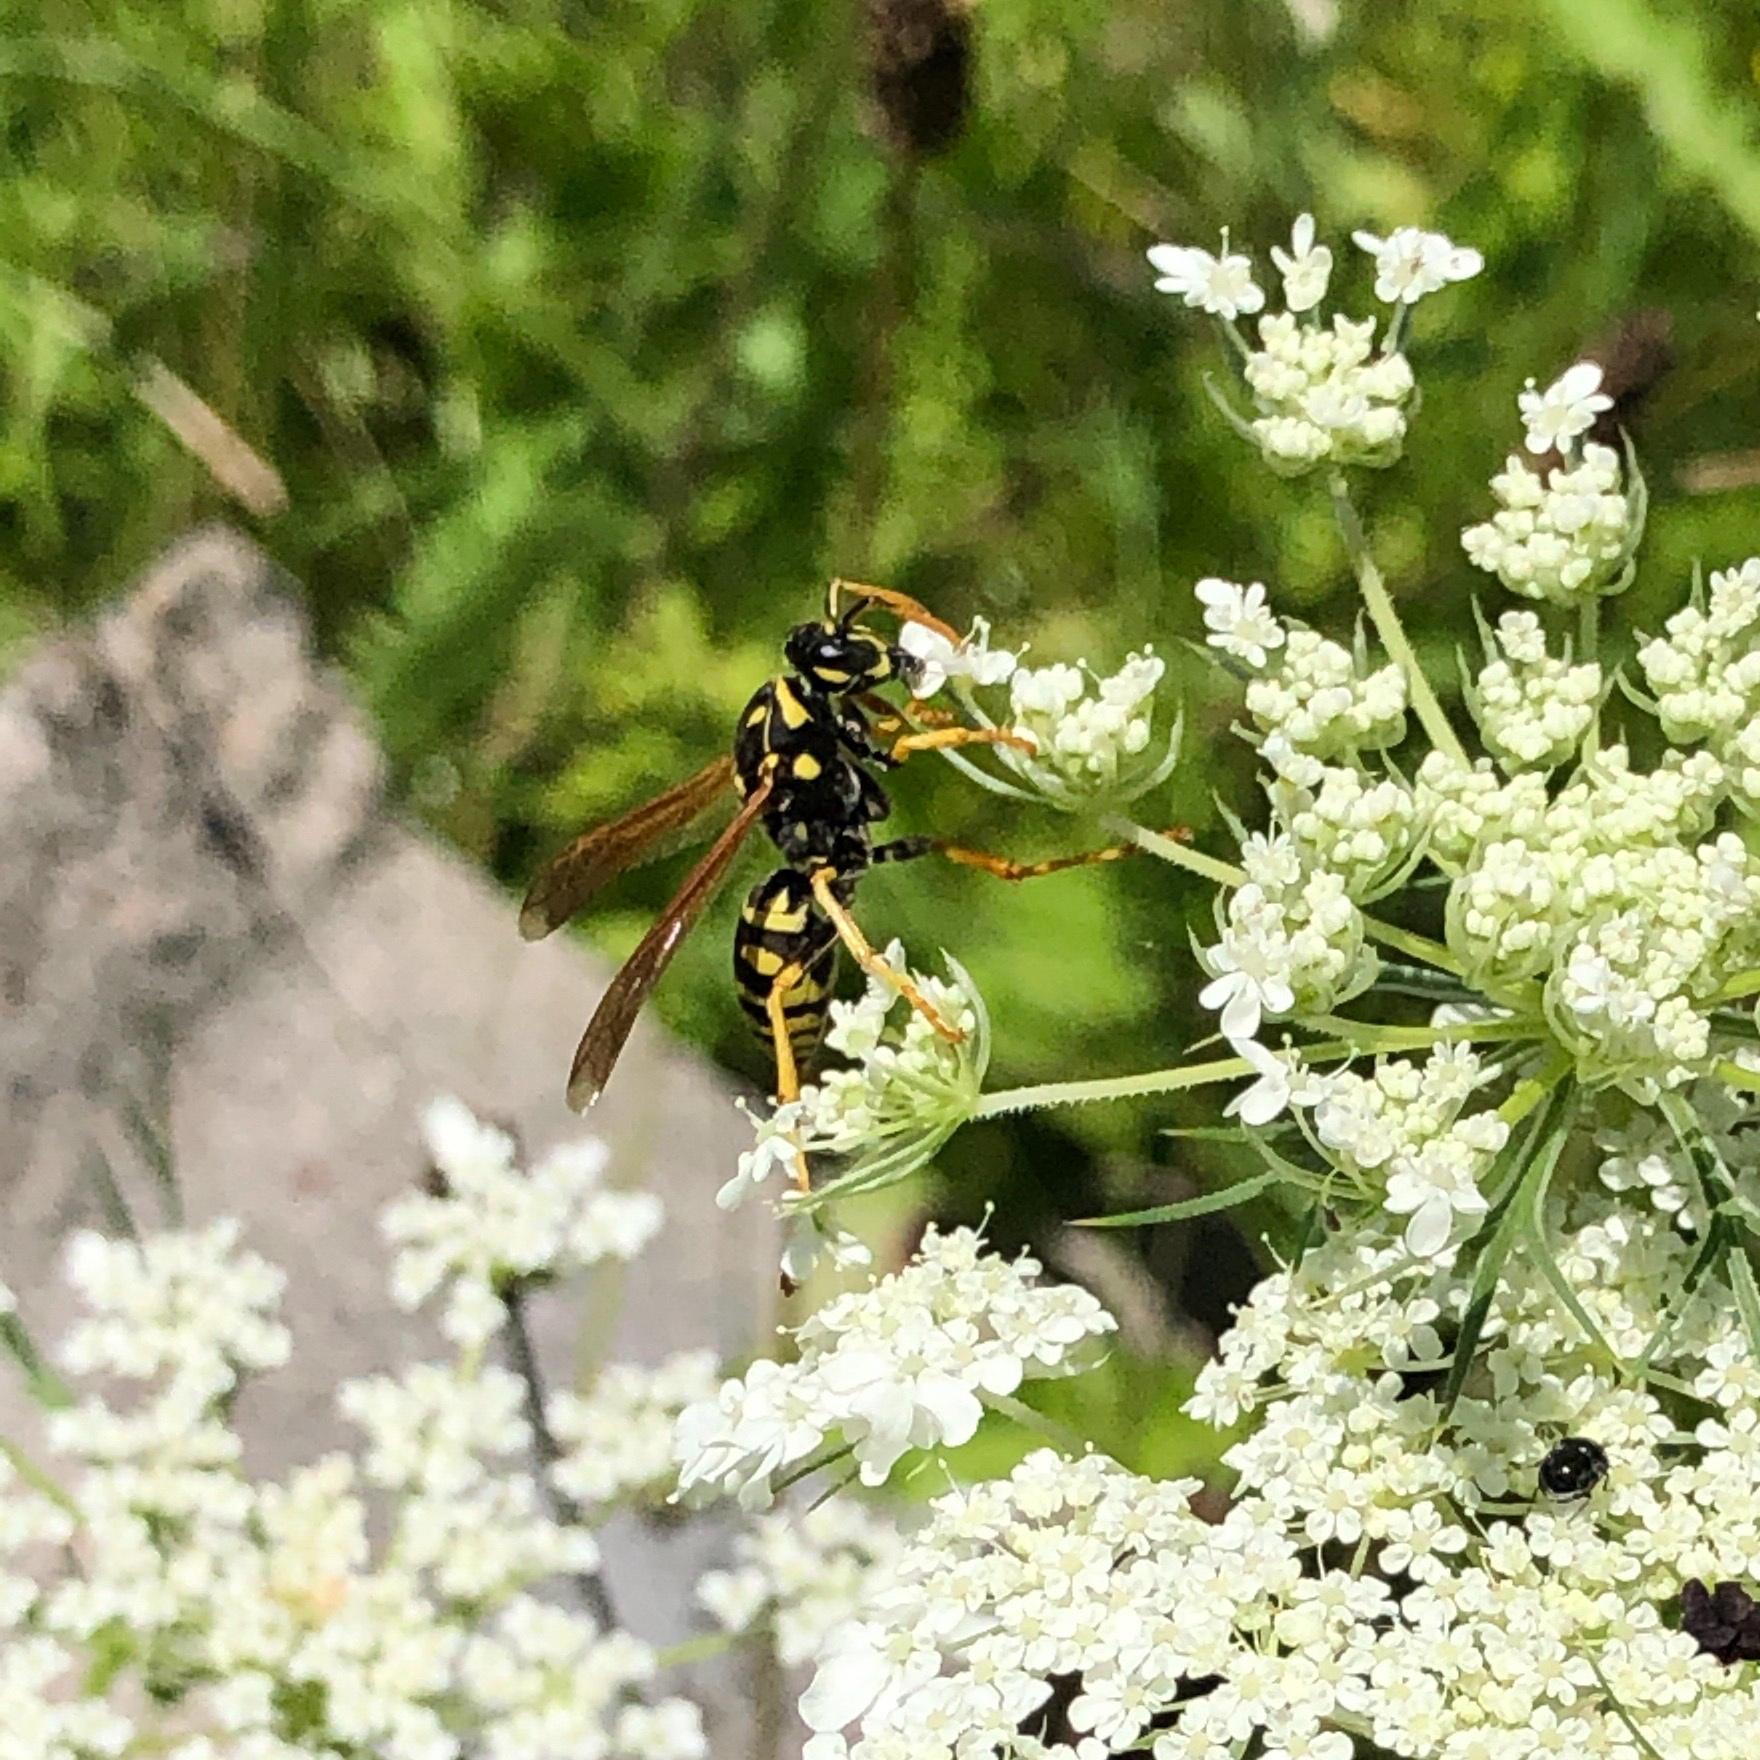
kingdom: Animalia
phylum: Arthropoda
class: Insecta
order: Hymenoptera
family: Eumenidae
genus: Polistes
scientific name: Polistes dominula
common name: Paper wasp
